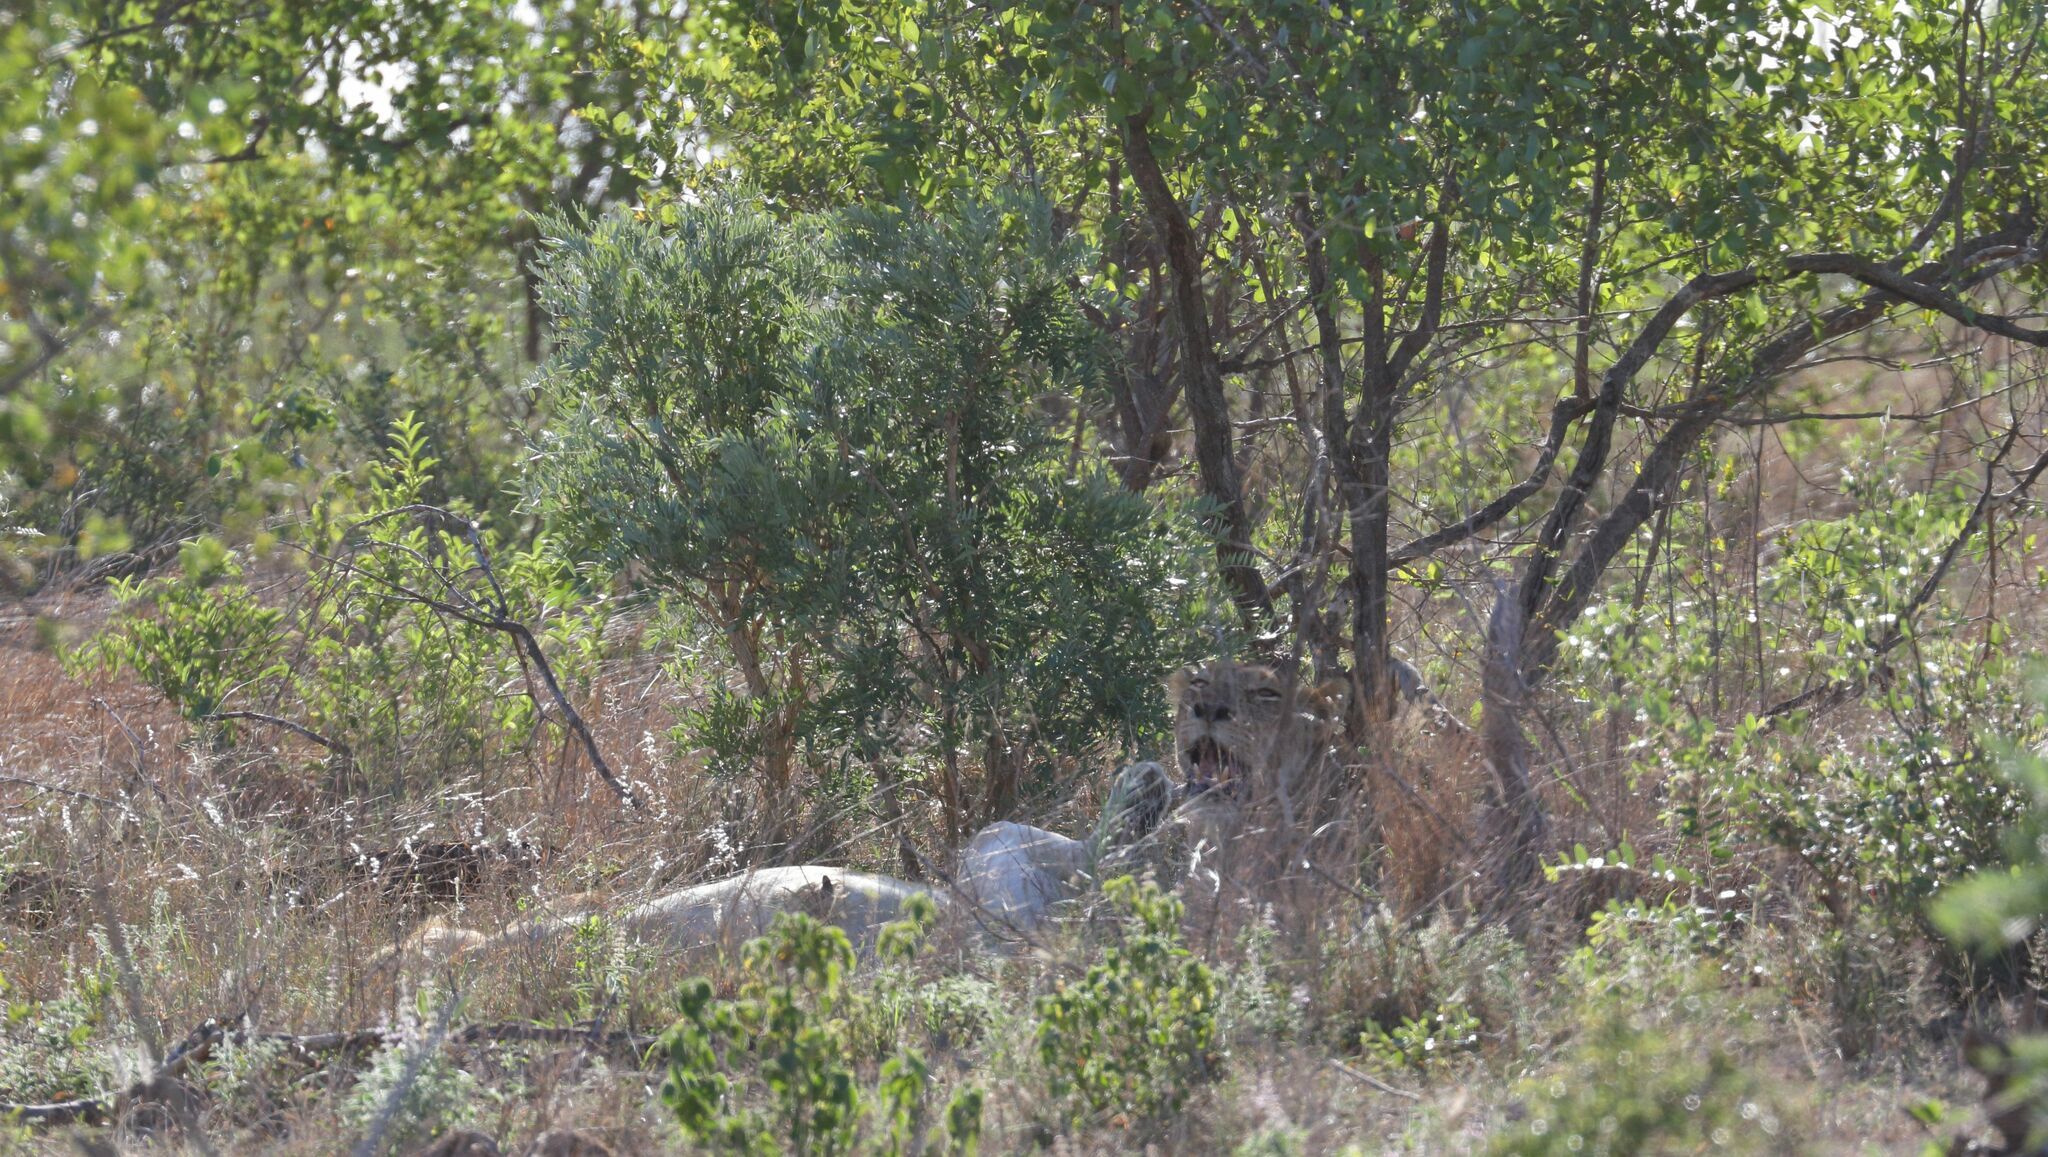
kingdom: Animalia
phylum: Chordata
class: Mammalia
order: Carnivora
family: Felidae
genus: Panthera
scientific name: Panthera leo
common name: Lion
